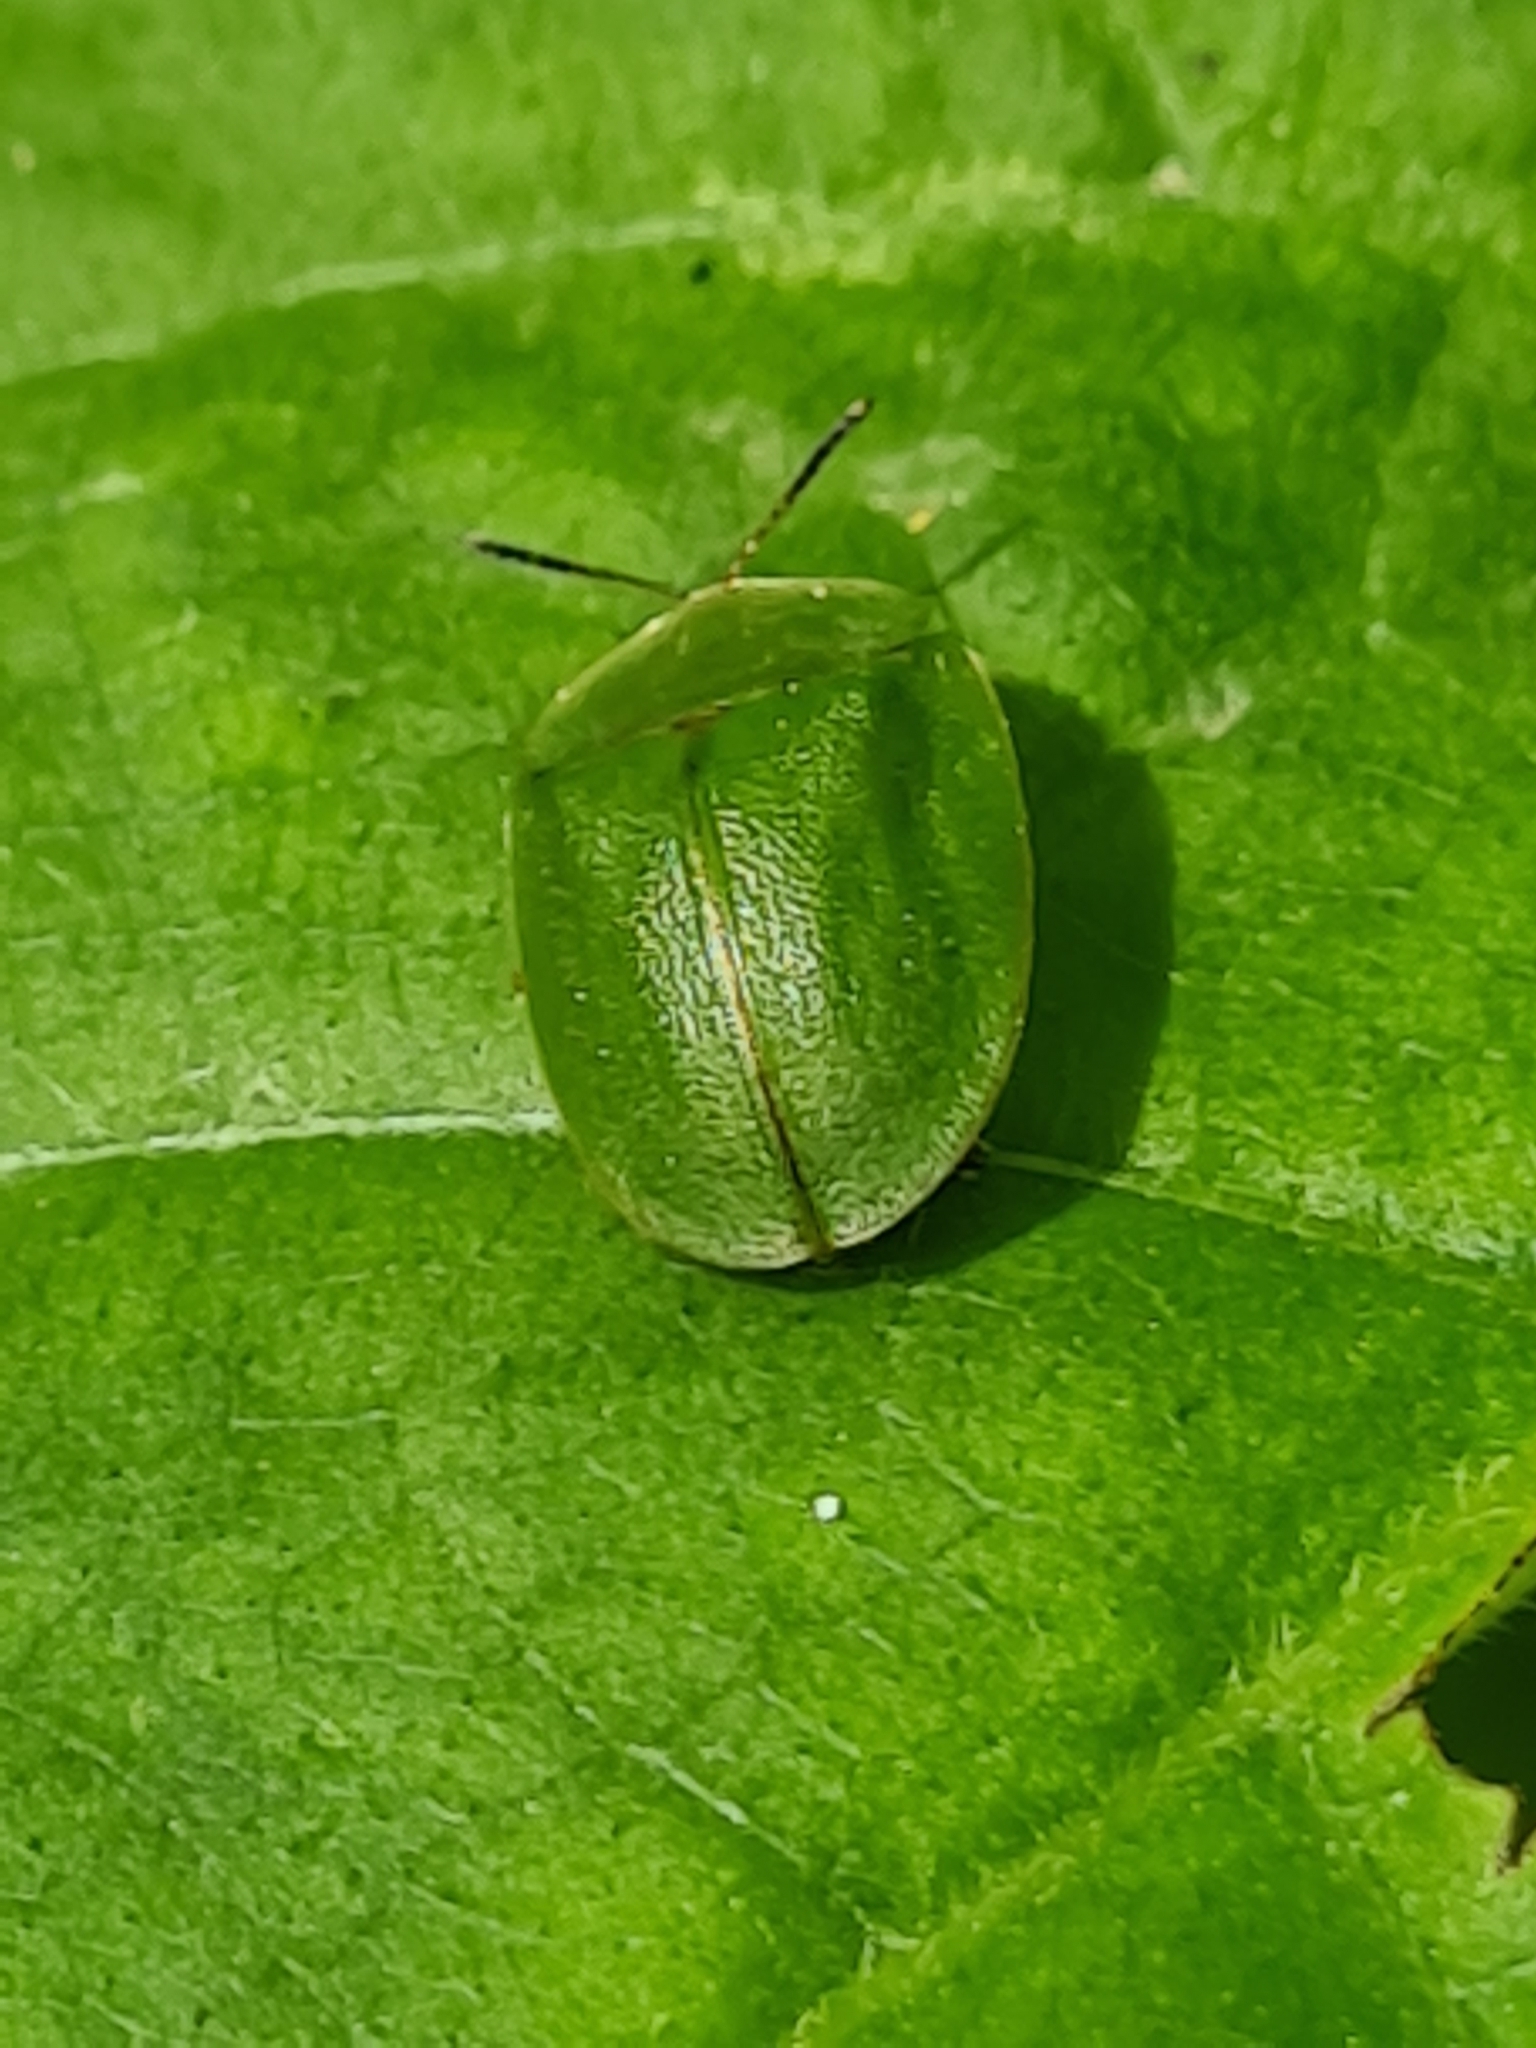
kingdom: Animalia
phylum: Arthropoda
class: Insecta
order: Coleoptera
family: Chrysomelidae
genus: Cassida
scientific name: Cassida viridis
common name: Green tortoise beetle
